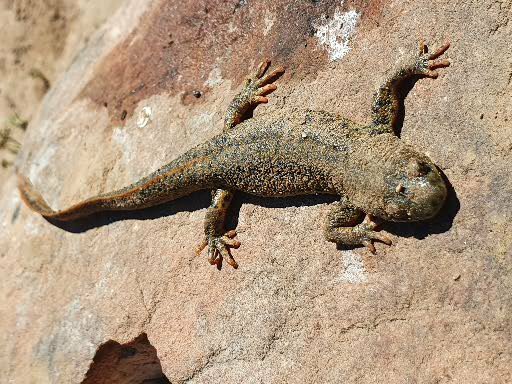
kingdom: Animalia
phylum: Chordata
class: Amphibia
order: Caudata
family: Salamandridae
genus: Pleurodeles
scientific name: Pleurodeles nebulosus
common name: Algerian ribbed newt
